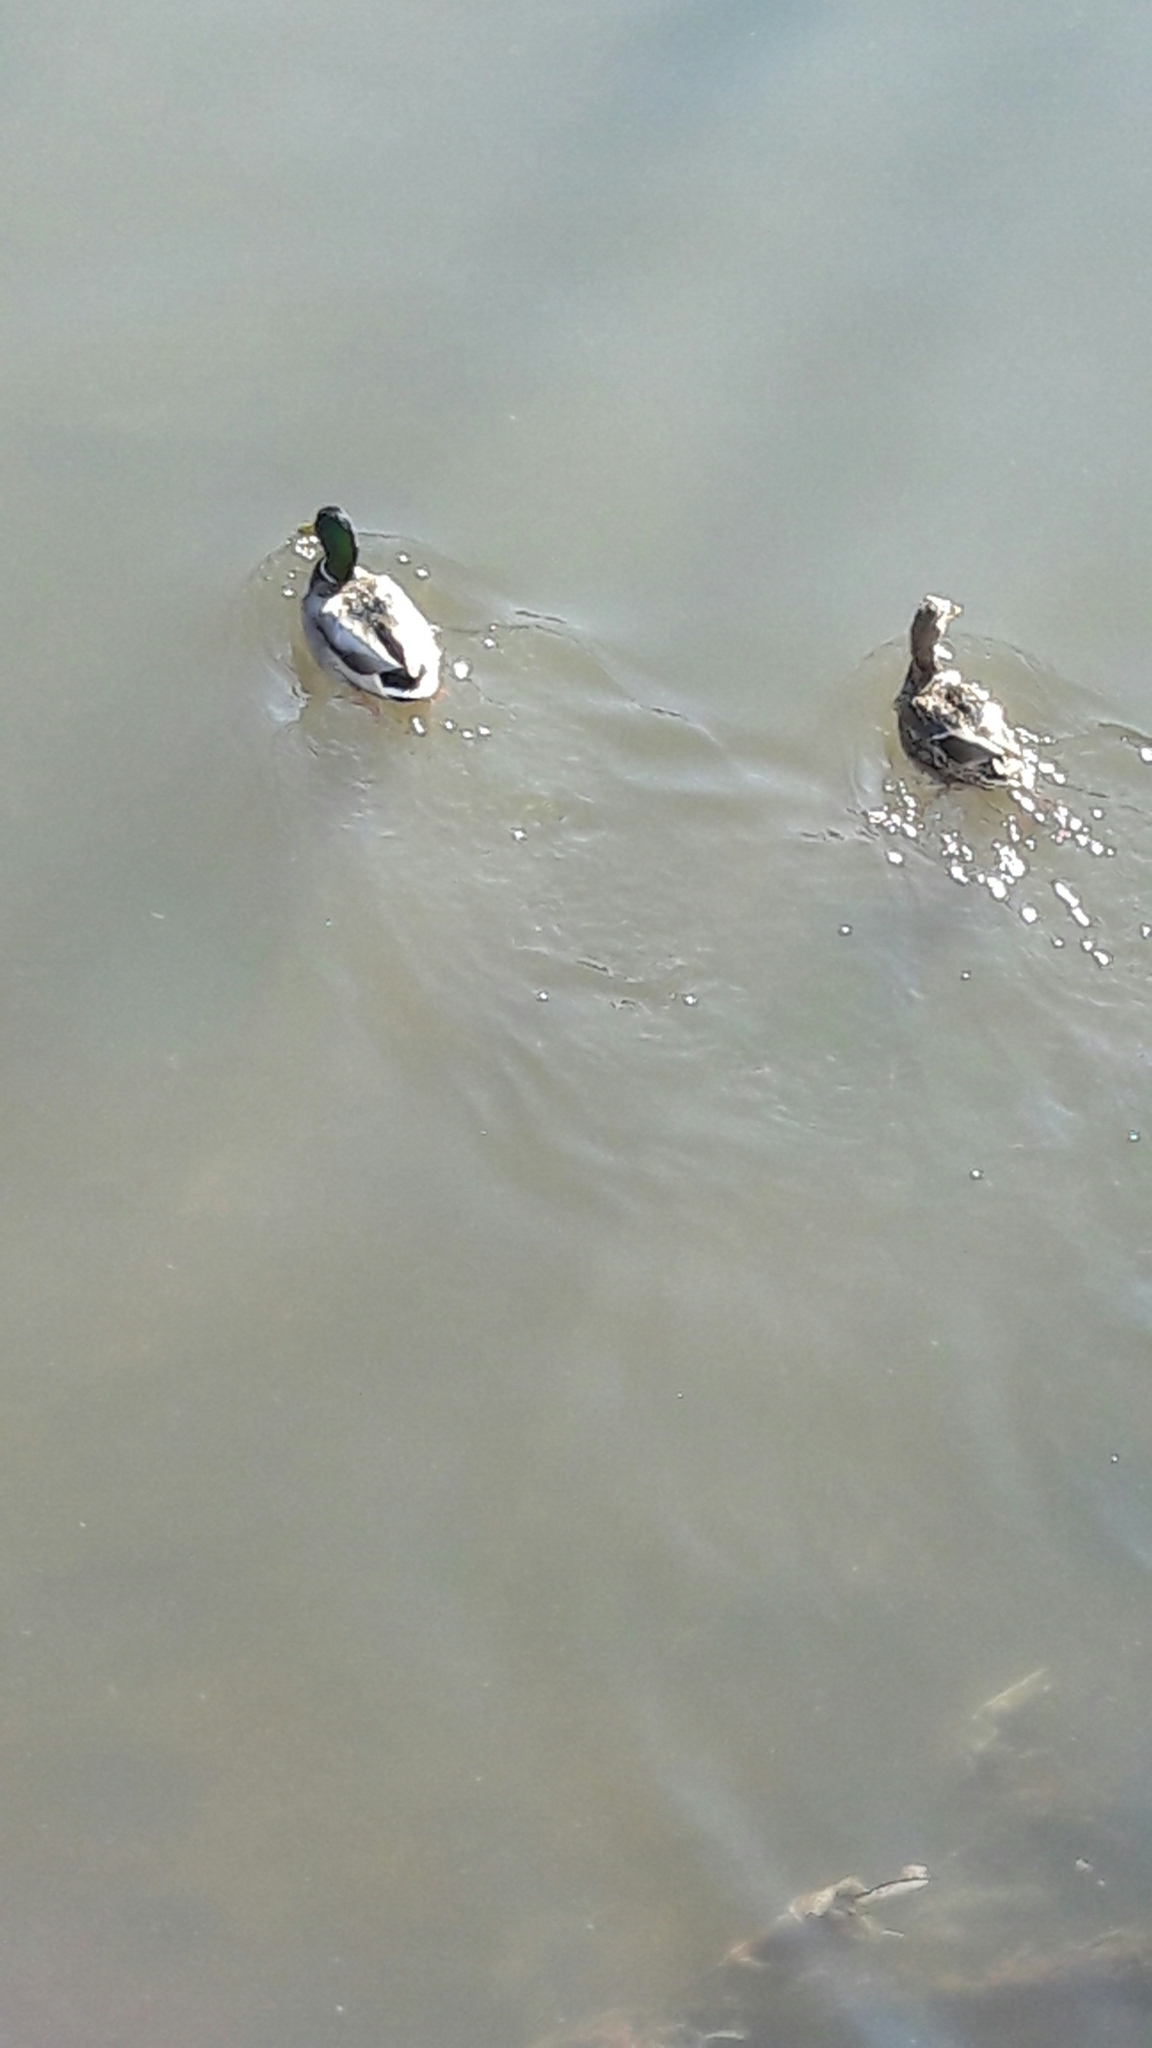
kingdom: Animalia
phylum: Chordata
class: Aves
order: Anseriformes
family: Anatidae
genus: Anas
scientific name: Anas platyrhynchos
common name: Mallard
